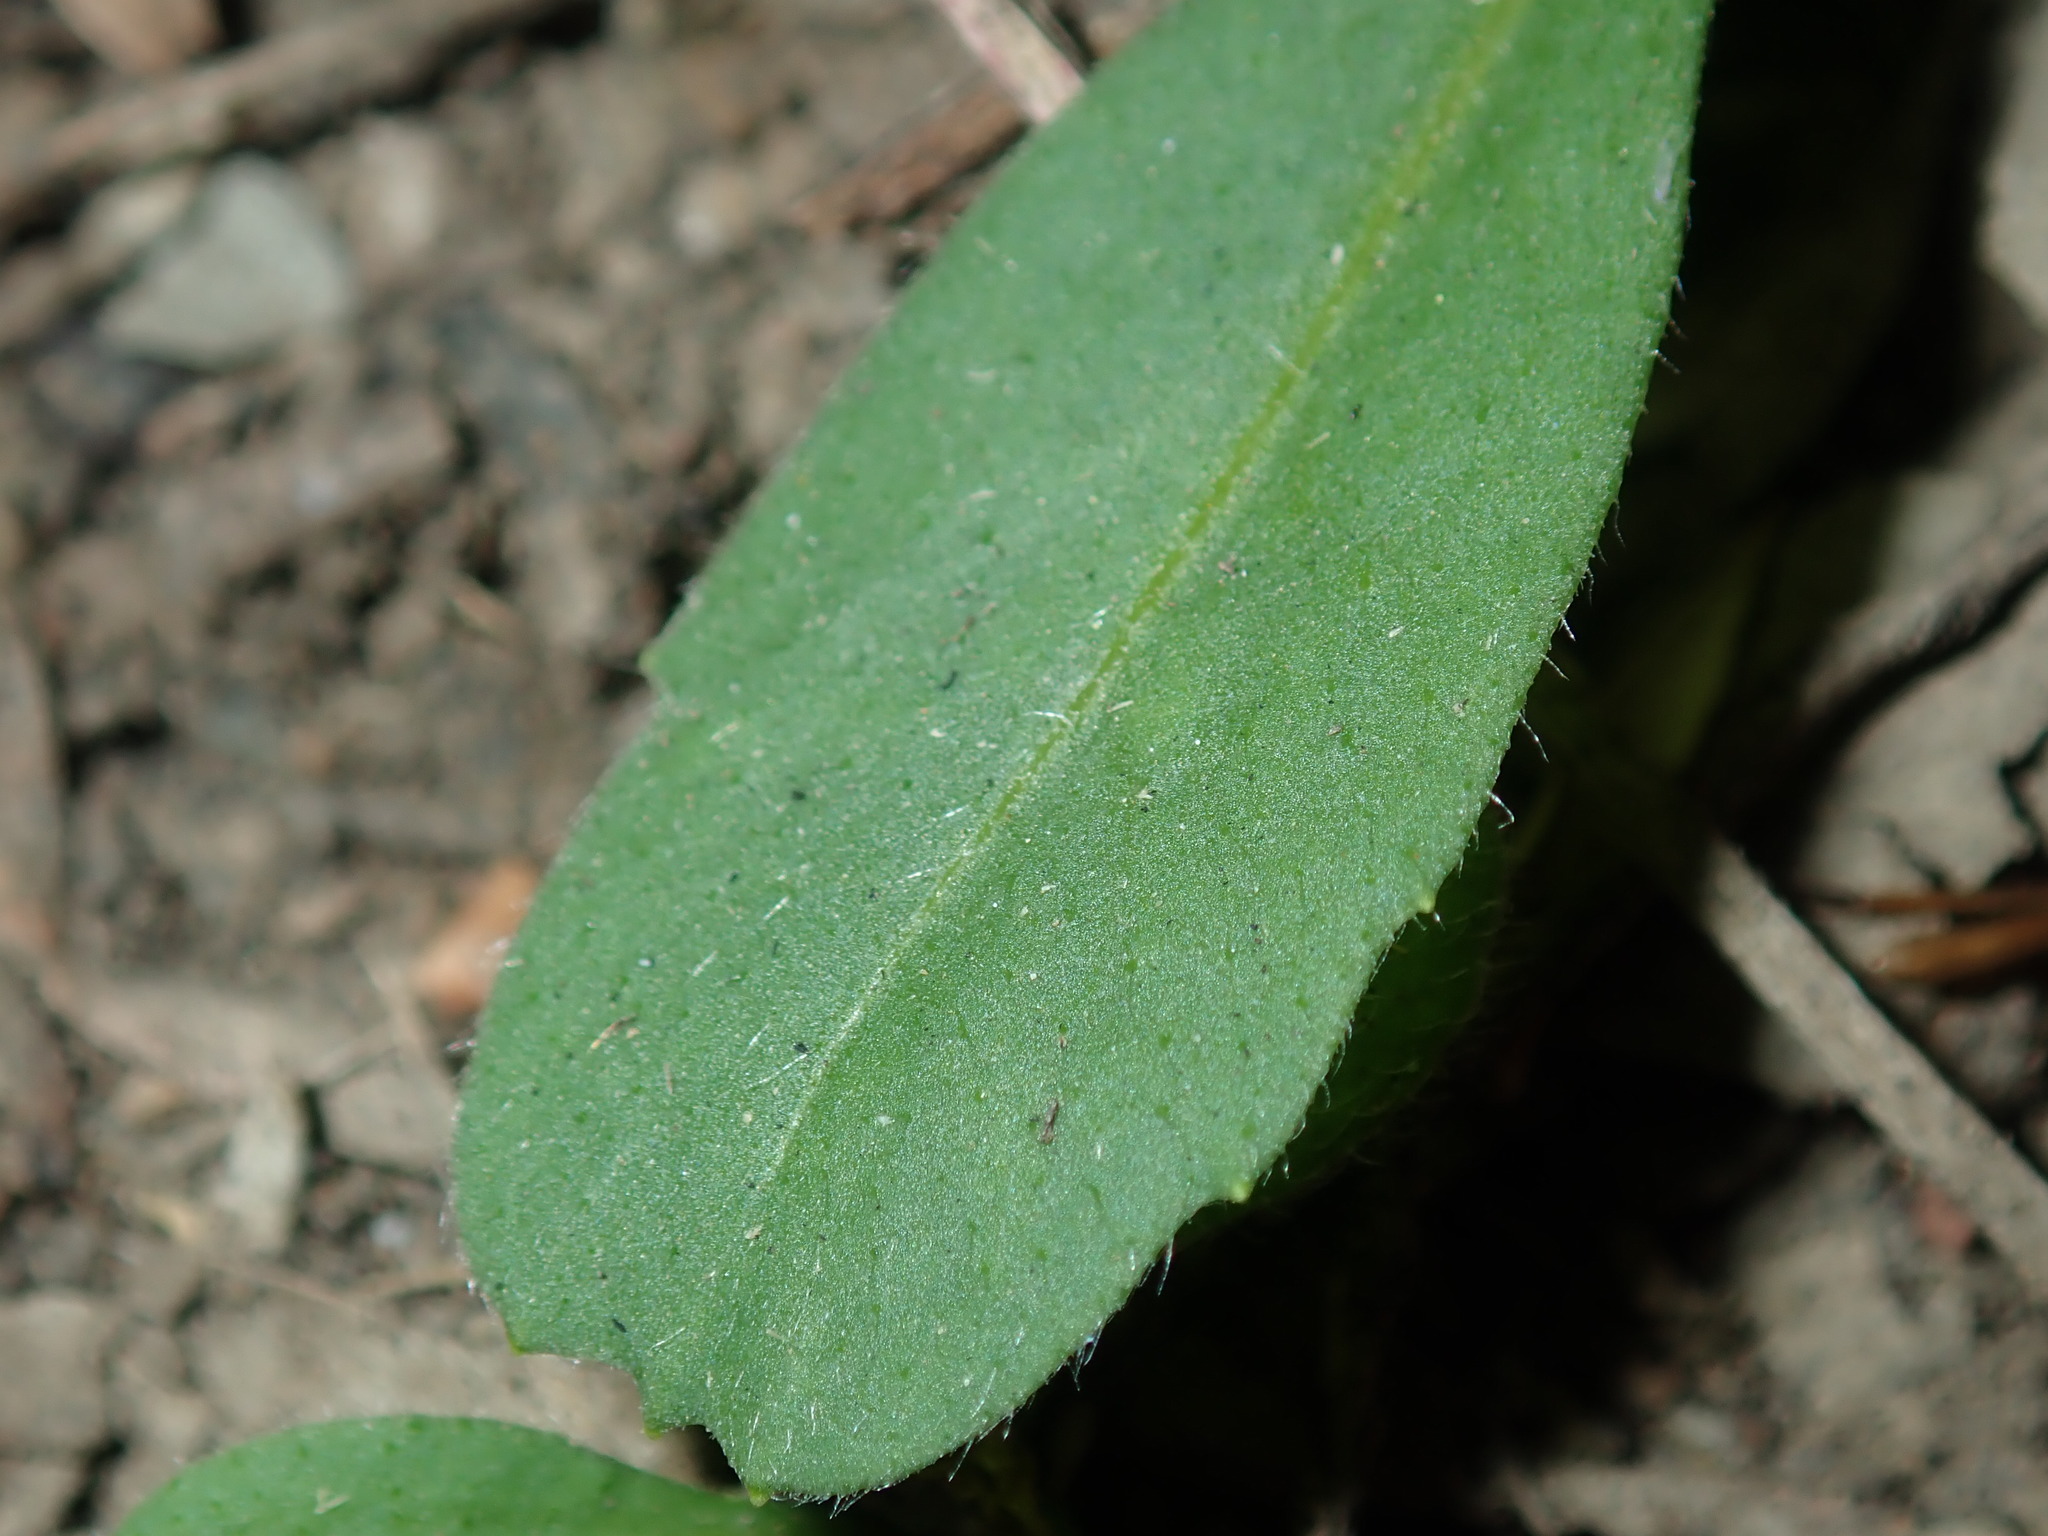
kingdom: Plantae
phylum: Tracheophyta
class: Magnoliopsida
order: Asterales
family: Asteraceae
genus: Solenogyne
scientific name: Solenogyne bellioides
